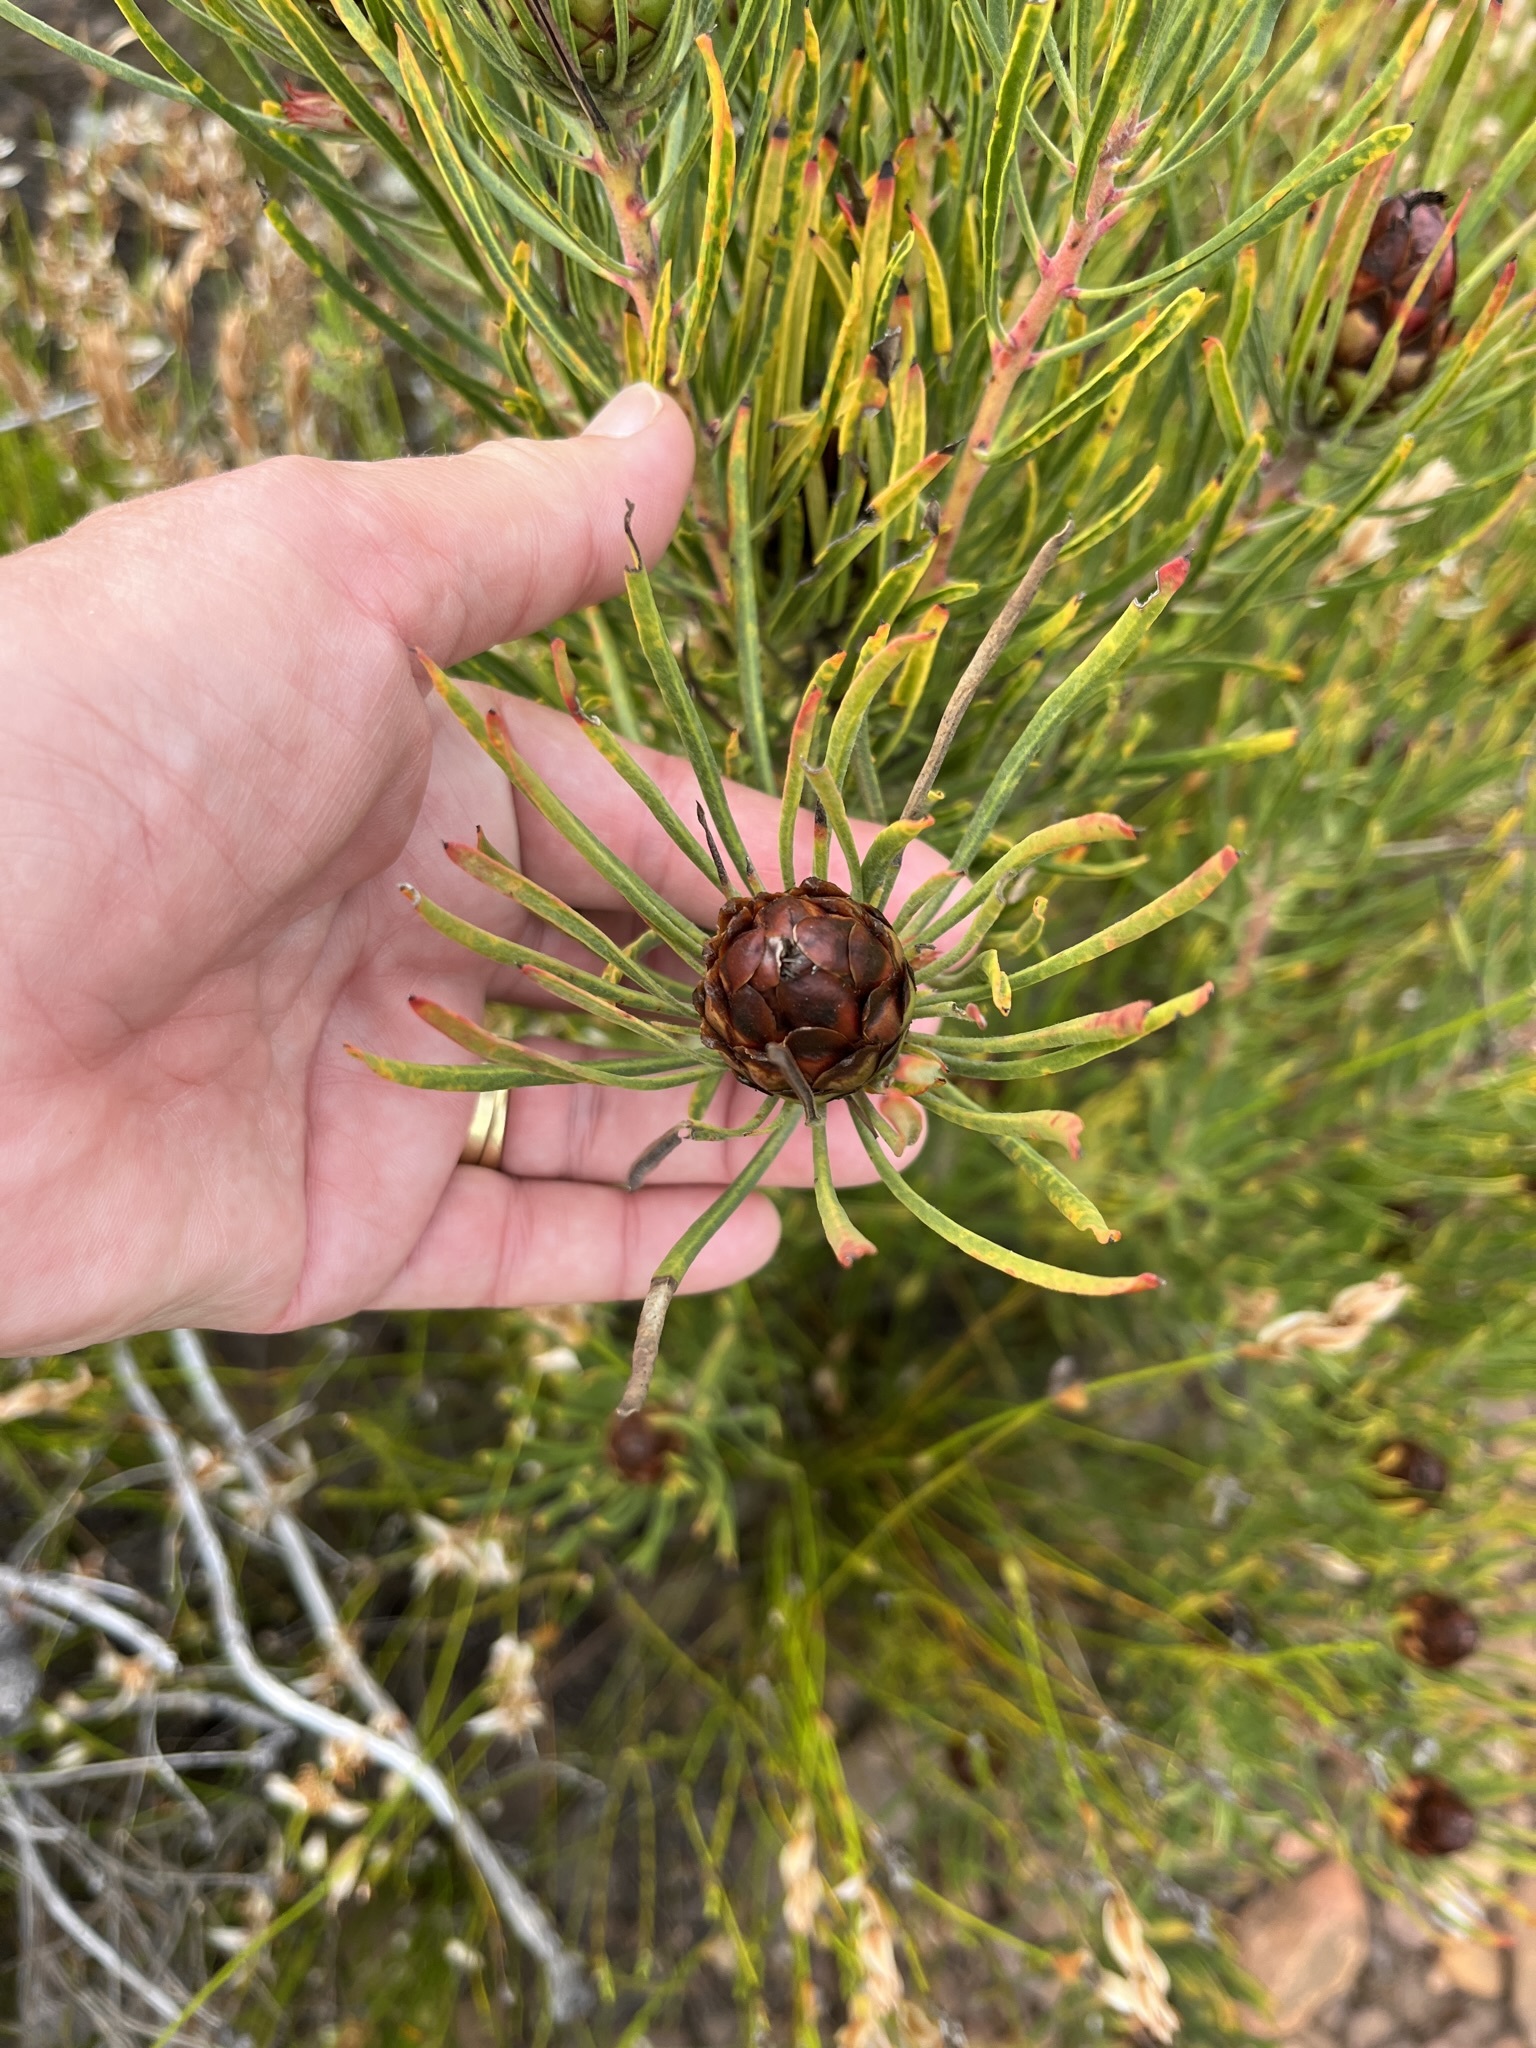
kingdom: Plantae
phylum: Tracheophyta
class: Magnoliopsida
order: Proteales
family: Proteaceae
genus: Protea
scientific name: Protea canaliculata
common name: Groove-leaf sugarbush
